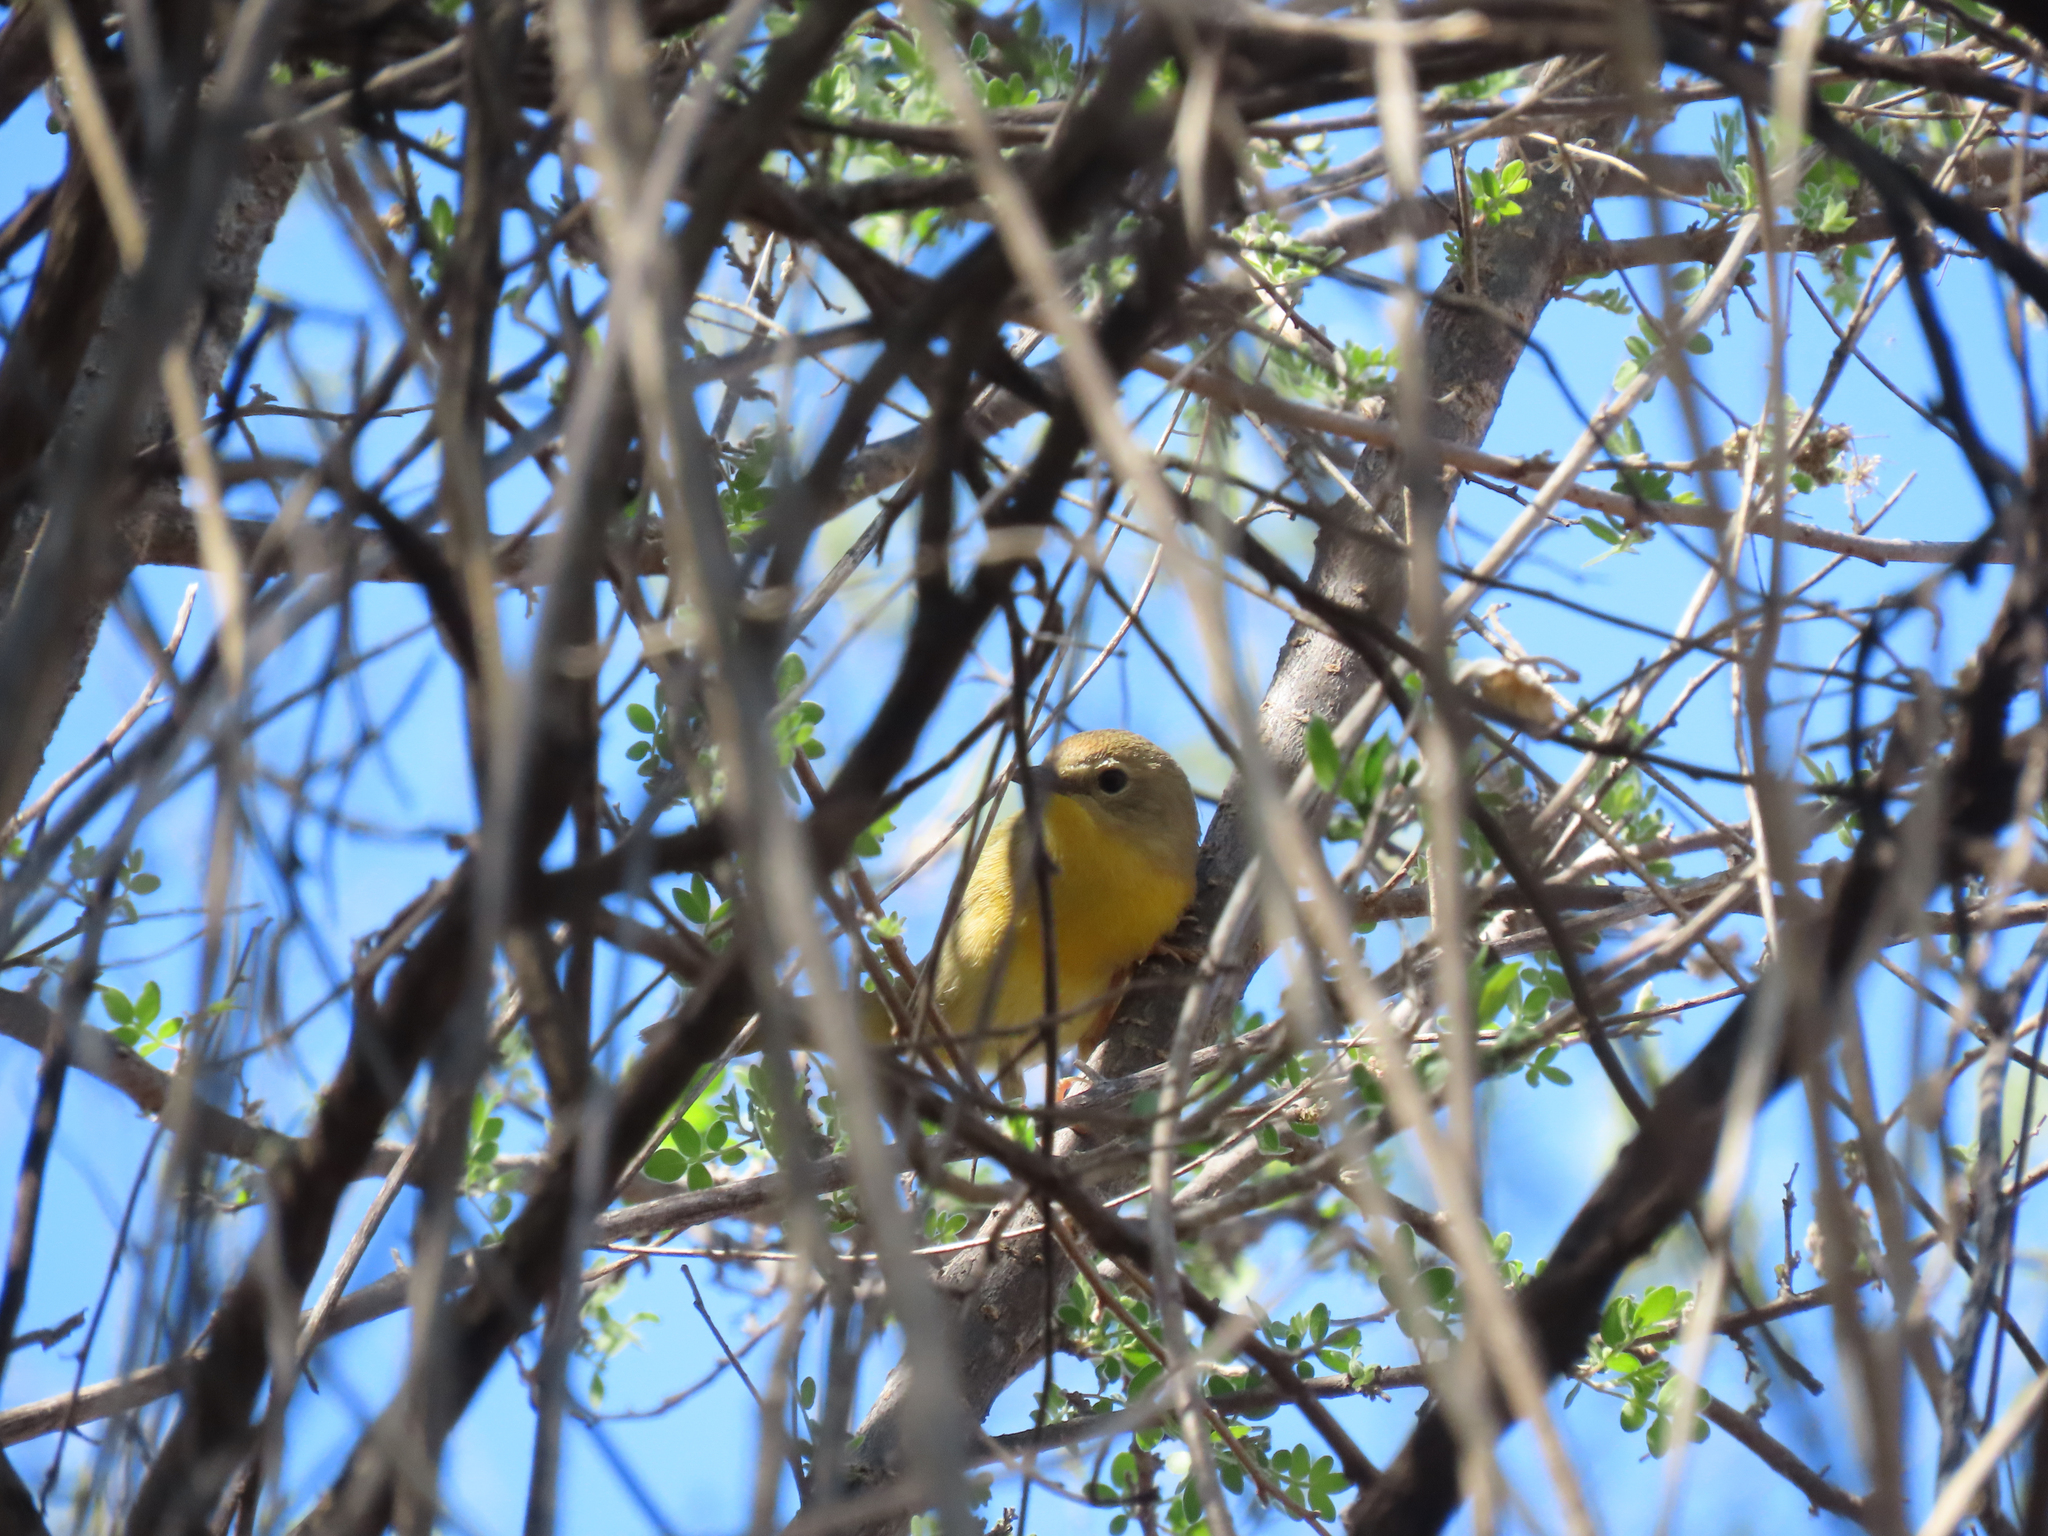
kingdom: Animalia
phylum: Chordata
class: Aves
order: Passeriformes
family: Parulidae
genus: Geothlypis
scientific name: Geothlypis trichas
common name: Common yellowthroat
